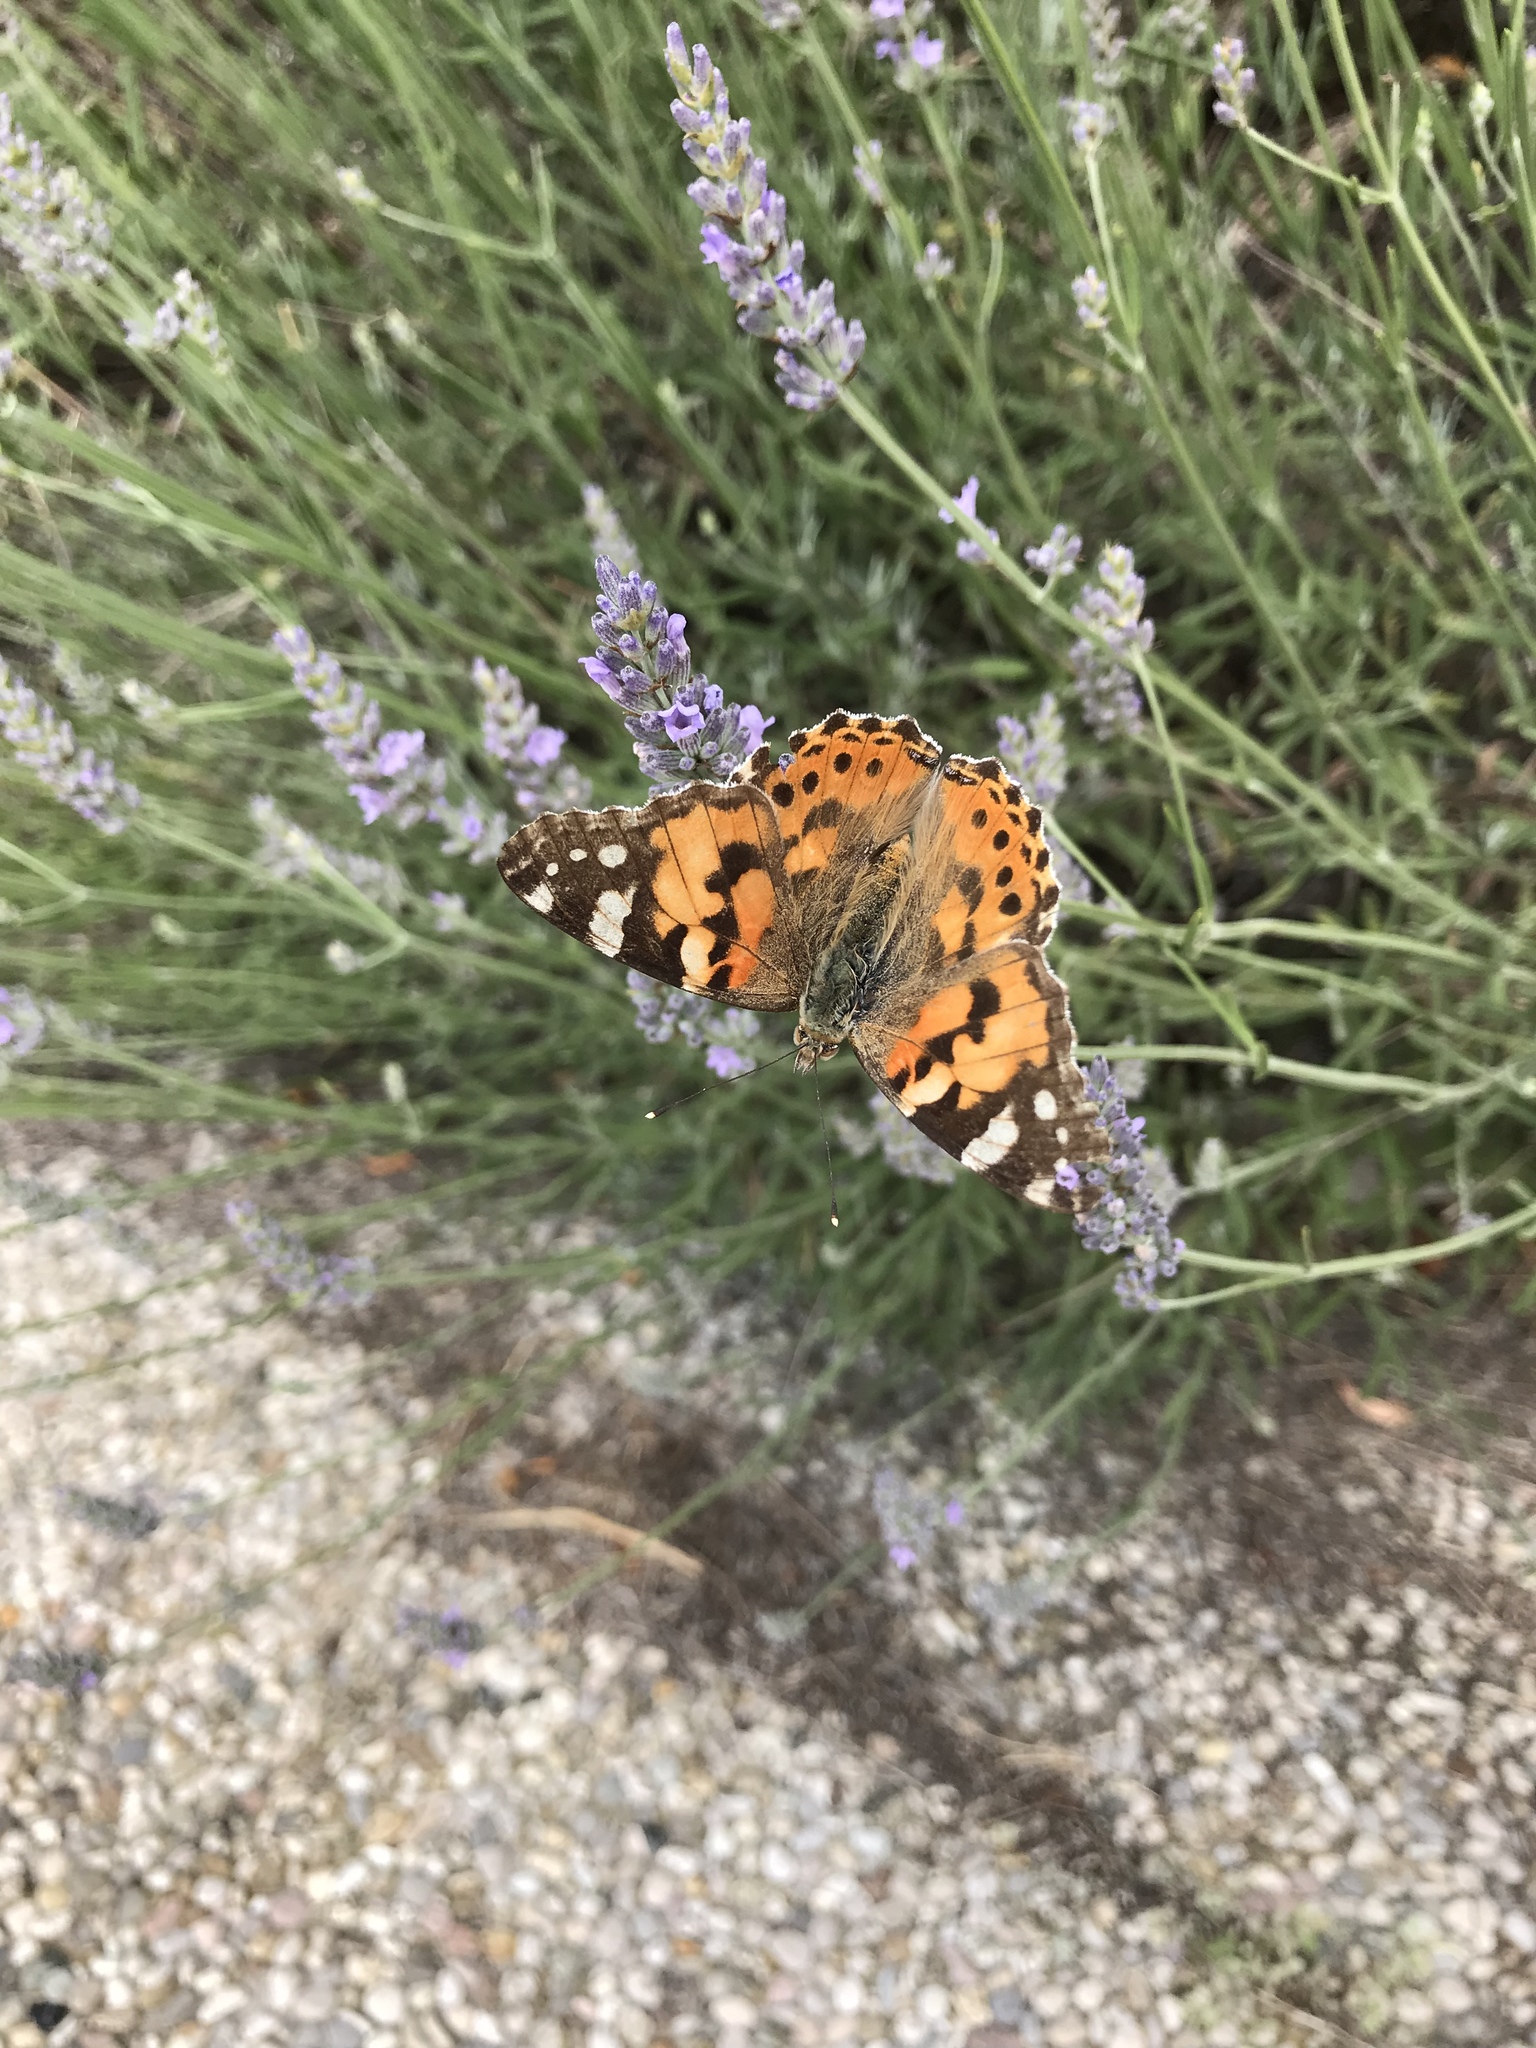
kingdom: Animalia
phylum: Arthropoda
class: Insecta
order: Lepidoptera
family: Nymphalidae
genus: Vanessa
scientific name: Vanessa cardui
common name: Painted lady
